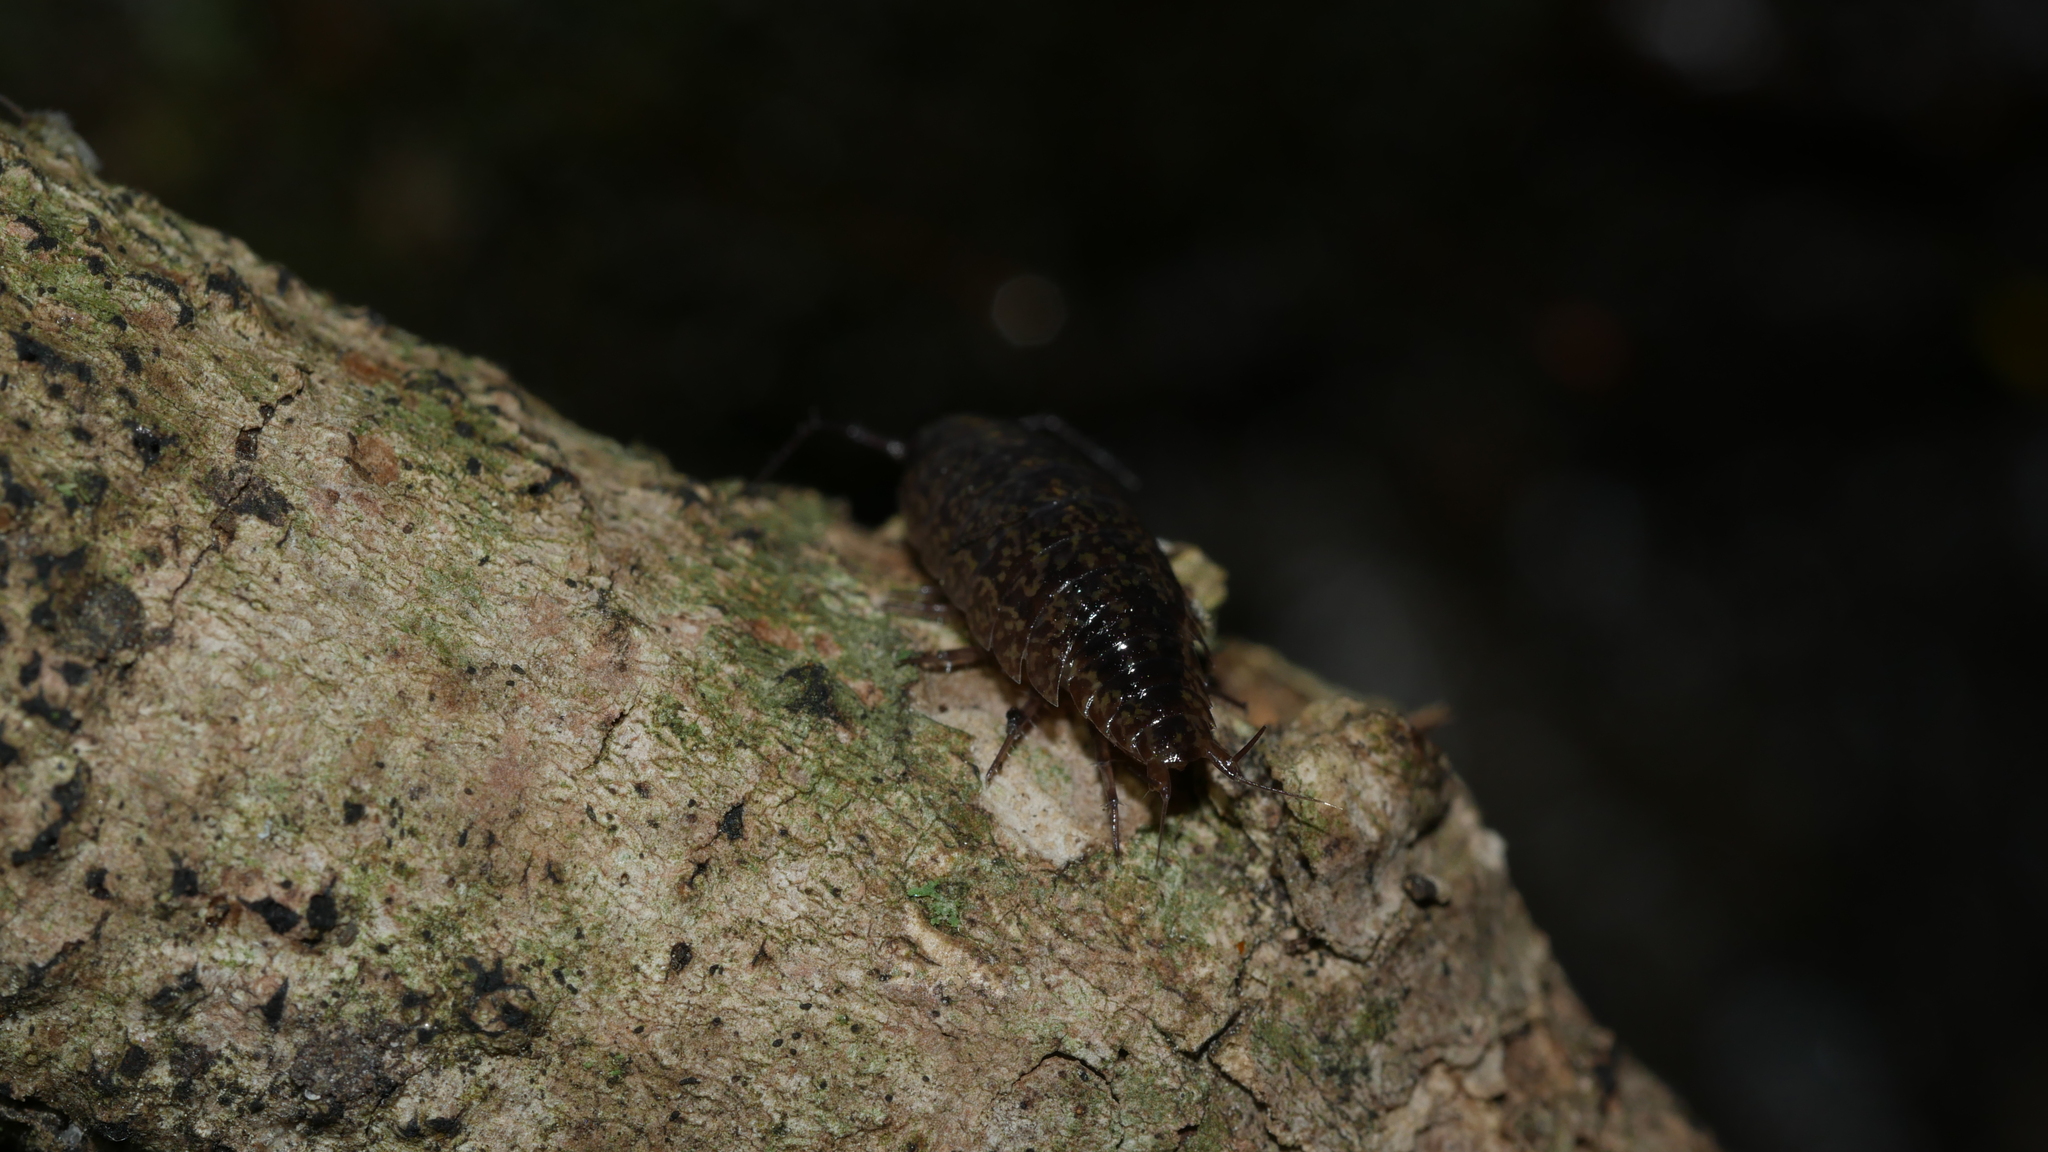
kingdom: Animalia
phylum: Arthropoda
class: Malacostraca
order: Isopoda
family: Ligiidae
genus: Ligidium
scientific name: Ligidium elrodii
